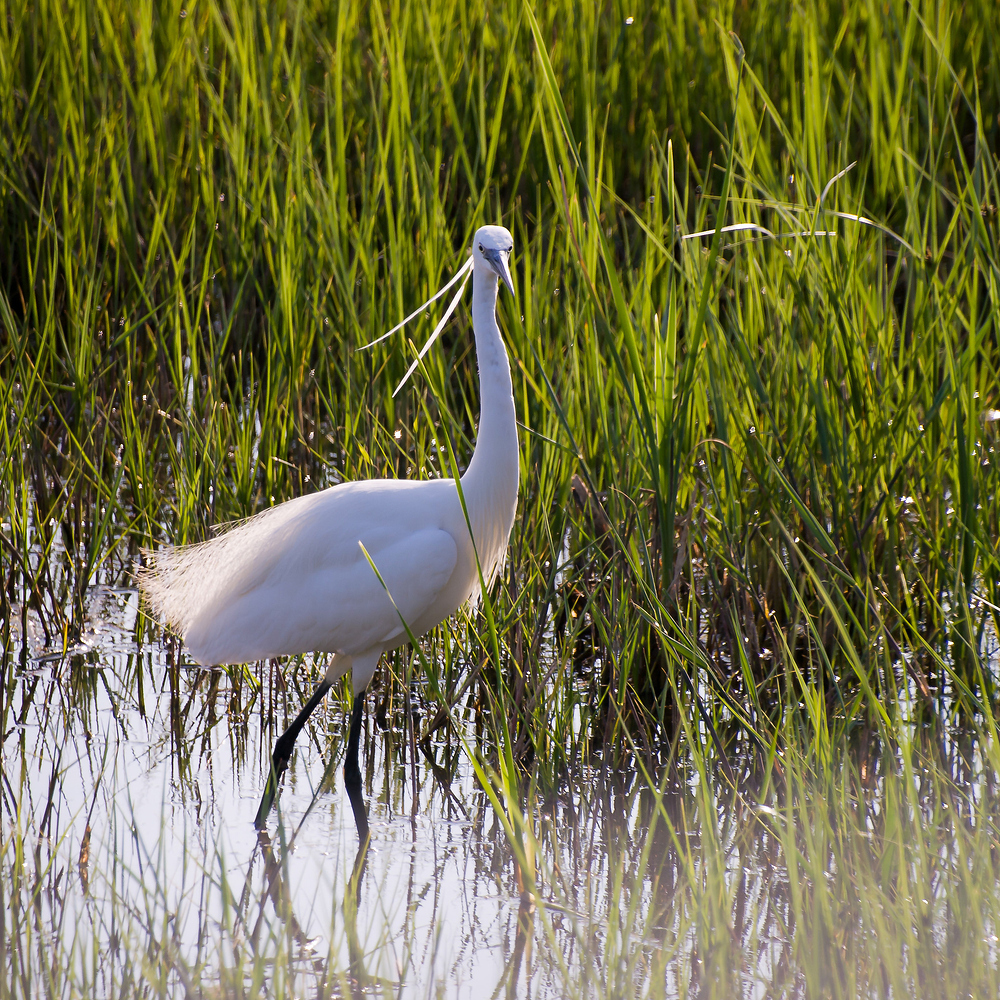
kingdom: Animalia
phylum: Chordata
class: Aves
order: Pelecaniformes
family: Ardeidae
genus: Egretta
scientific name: Egretta garzetta
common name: Little egret
